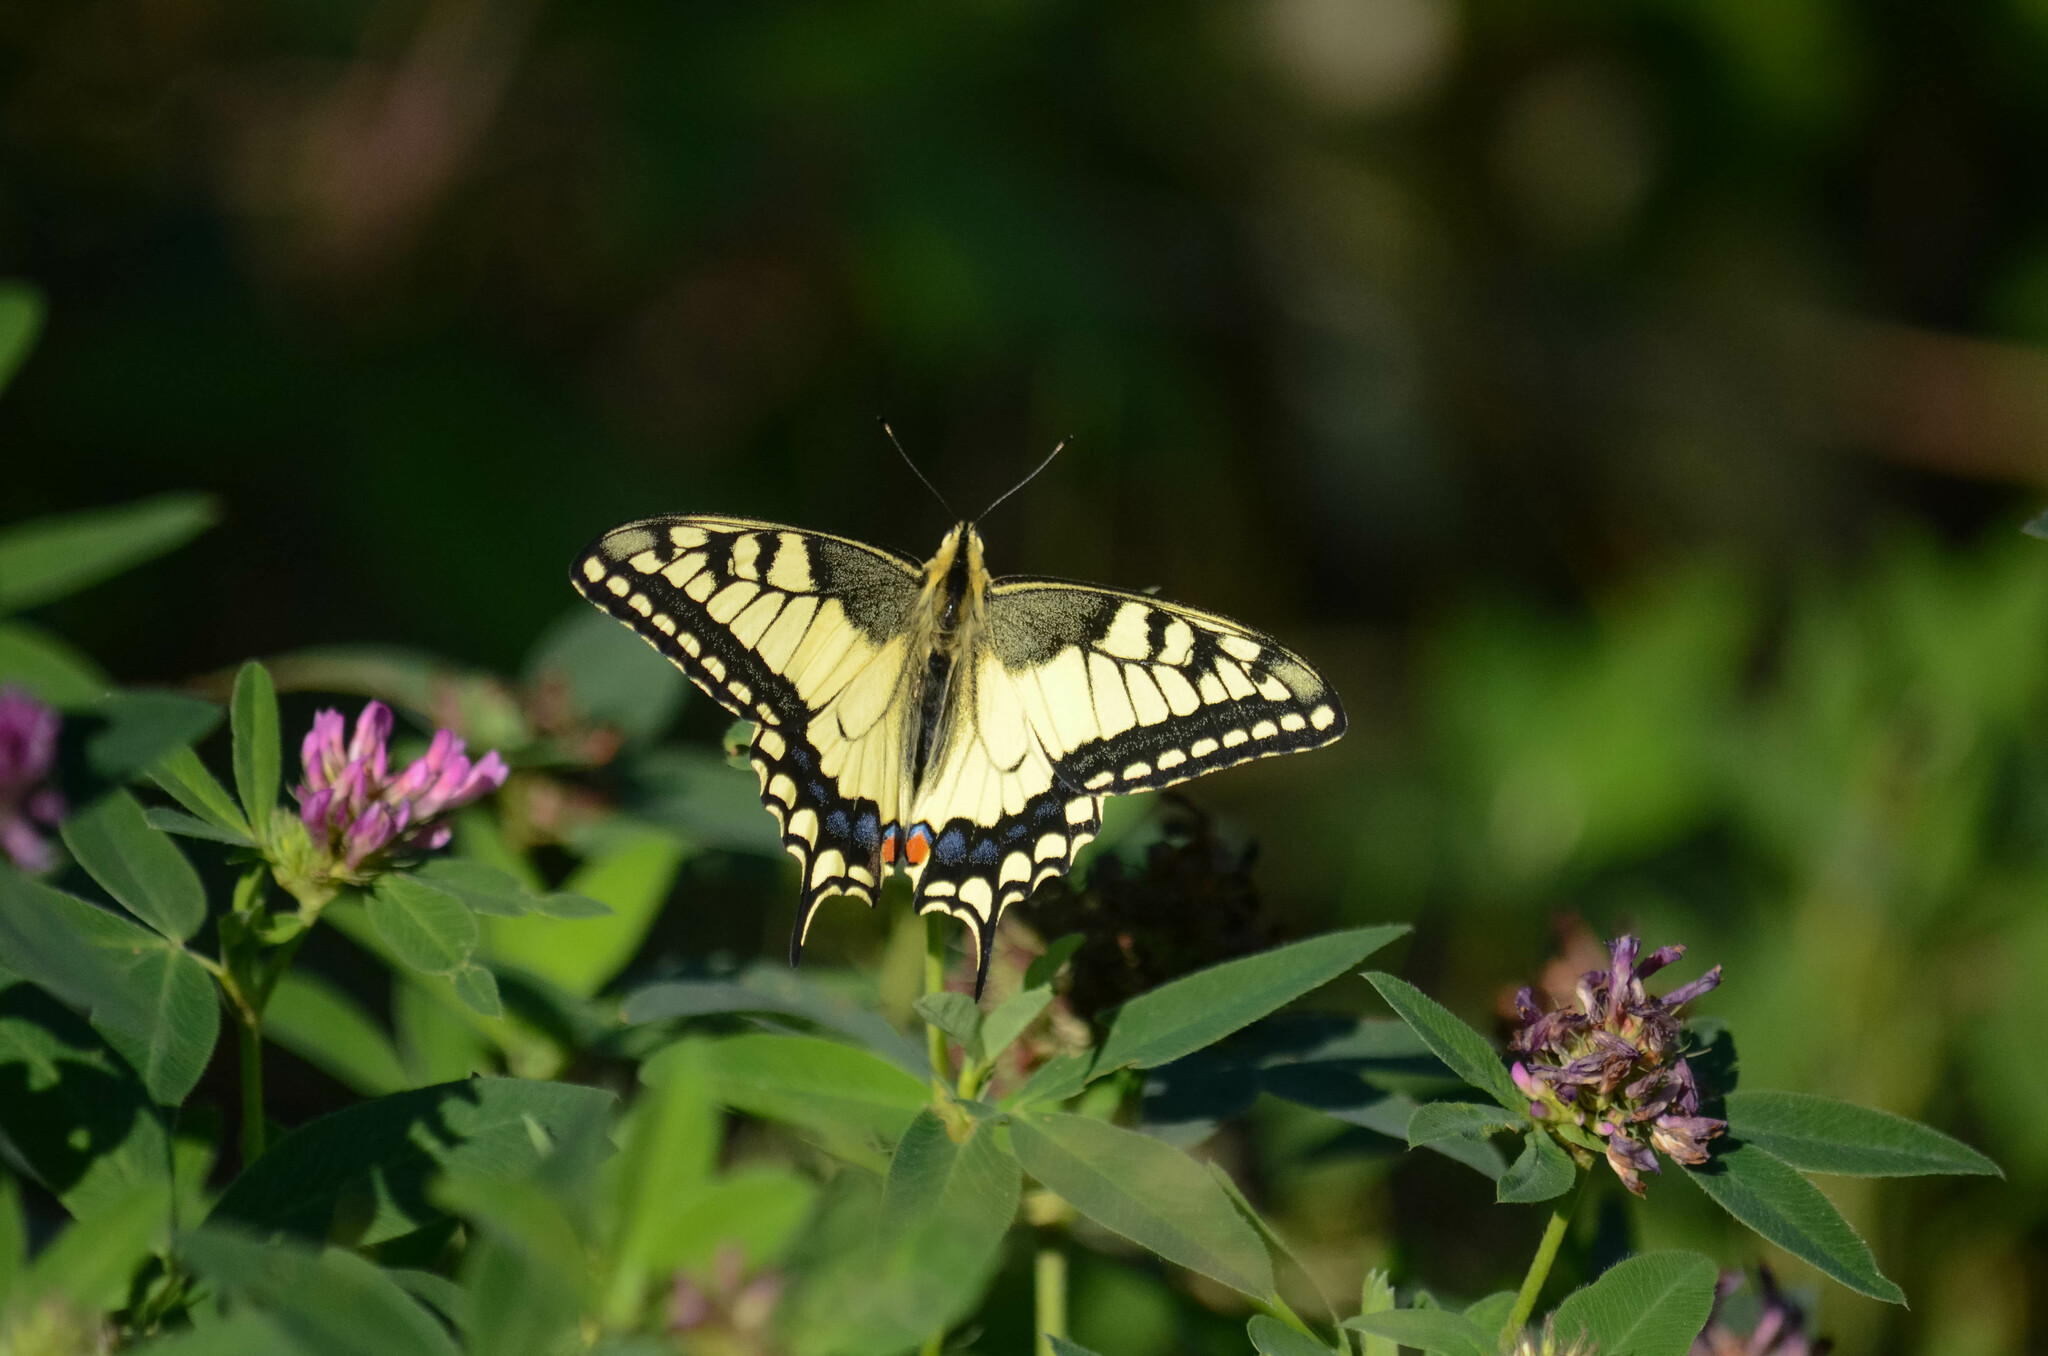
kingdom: Animalia
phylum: Arthropoda
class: Insecta
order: Lepidoptera
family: Papilionidae
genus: Papilio
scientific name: Papilio machaon
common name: Swallowtail
